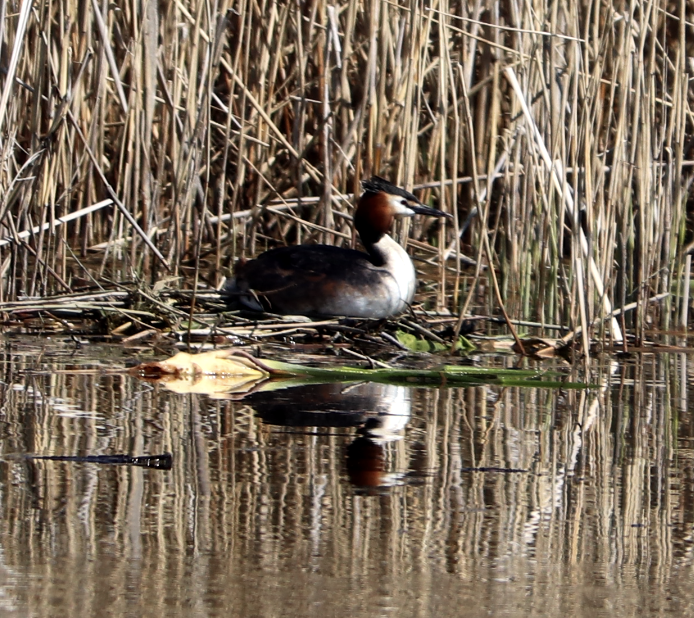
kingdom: Animalia
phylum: Chordata
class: Aves
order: Podicipediformes
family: Podicipedidae
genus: Podiceps
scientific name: Podiceps cristatus
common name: Great crested grebe
